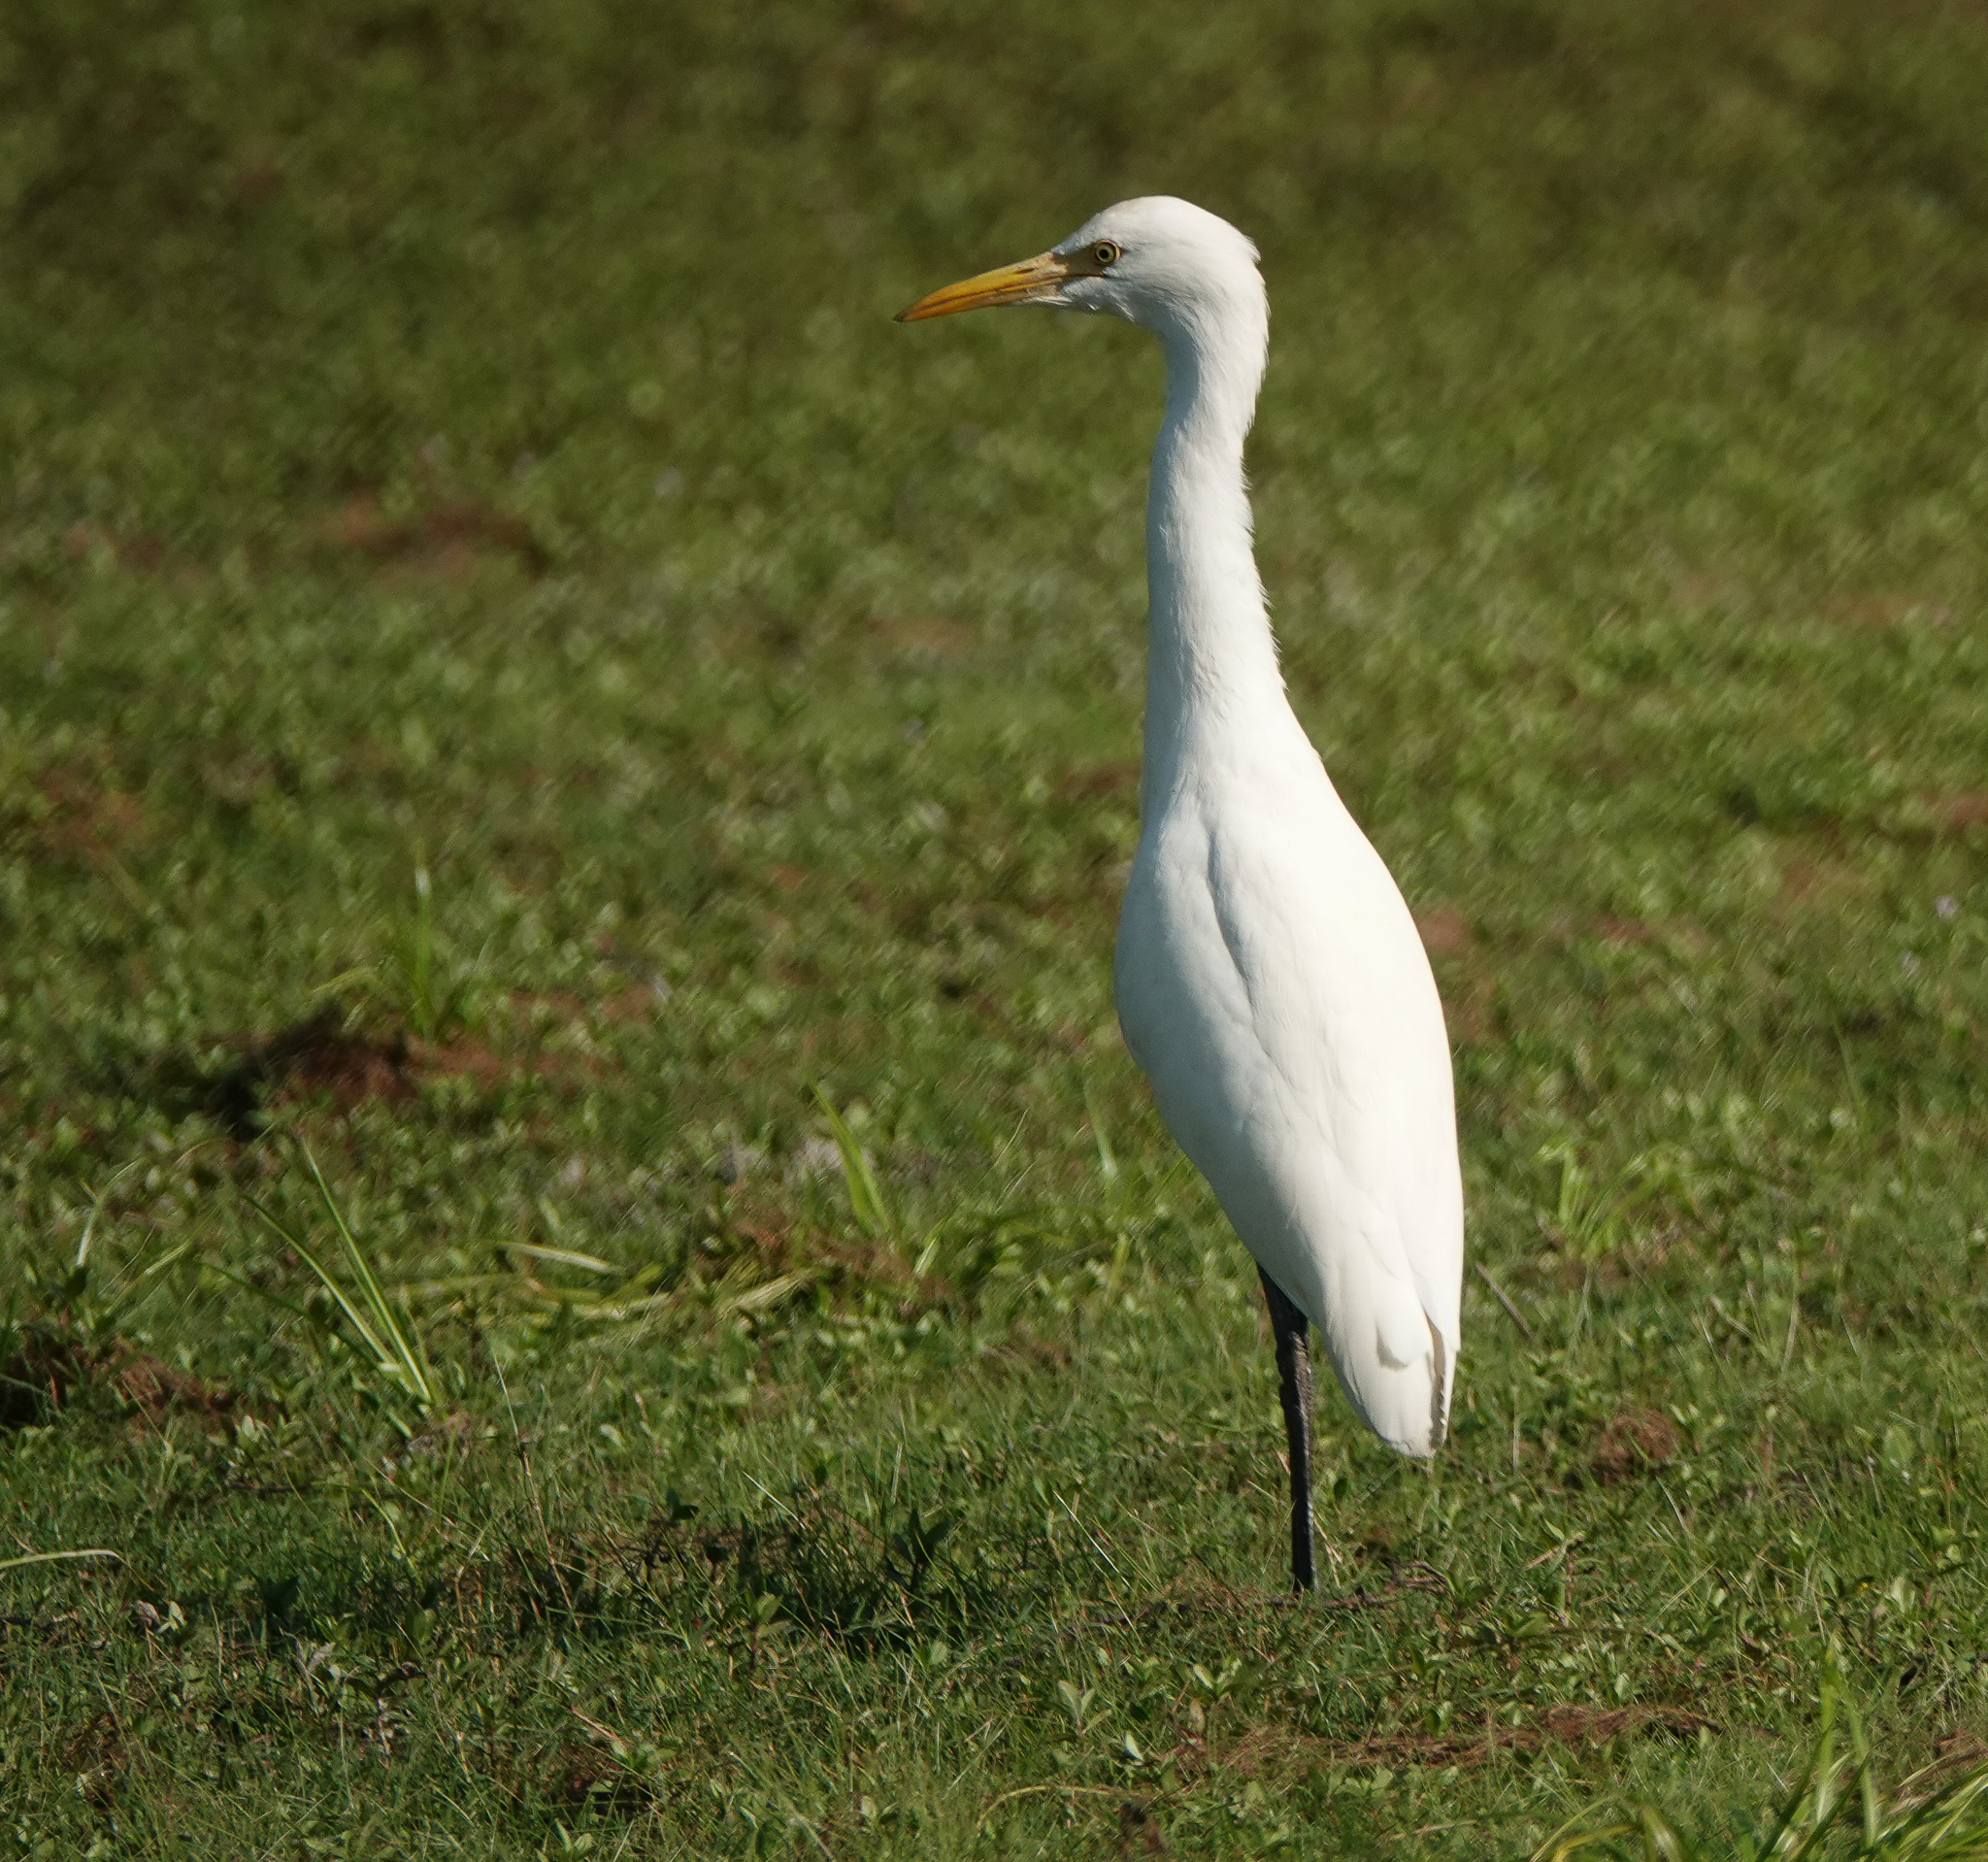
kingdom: Animalia
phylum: Chordata
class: Aves
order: Pelecaniformes
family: Ardeidae
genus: Bubulcus
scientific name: Bubulcus coromandus
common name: Eastern cattle egret
